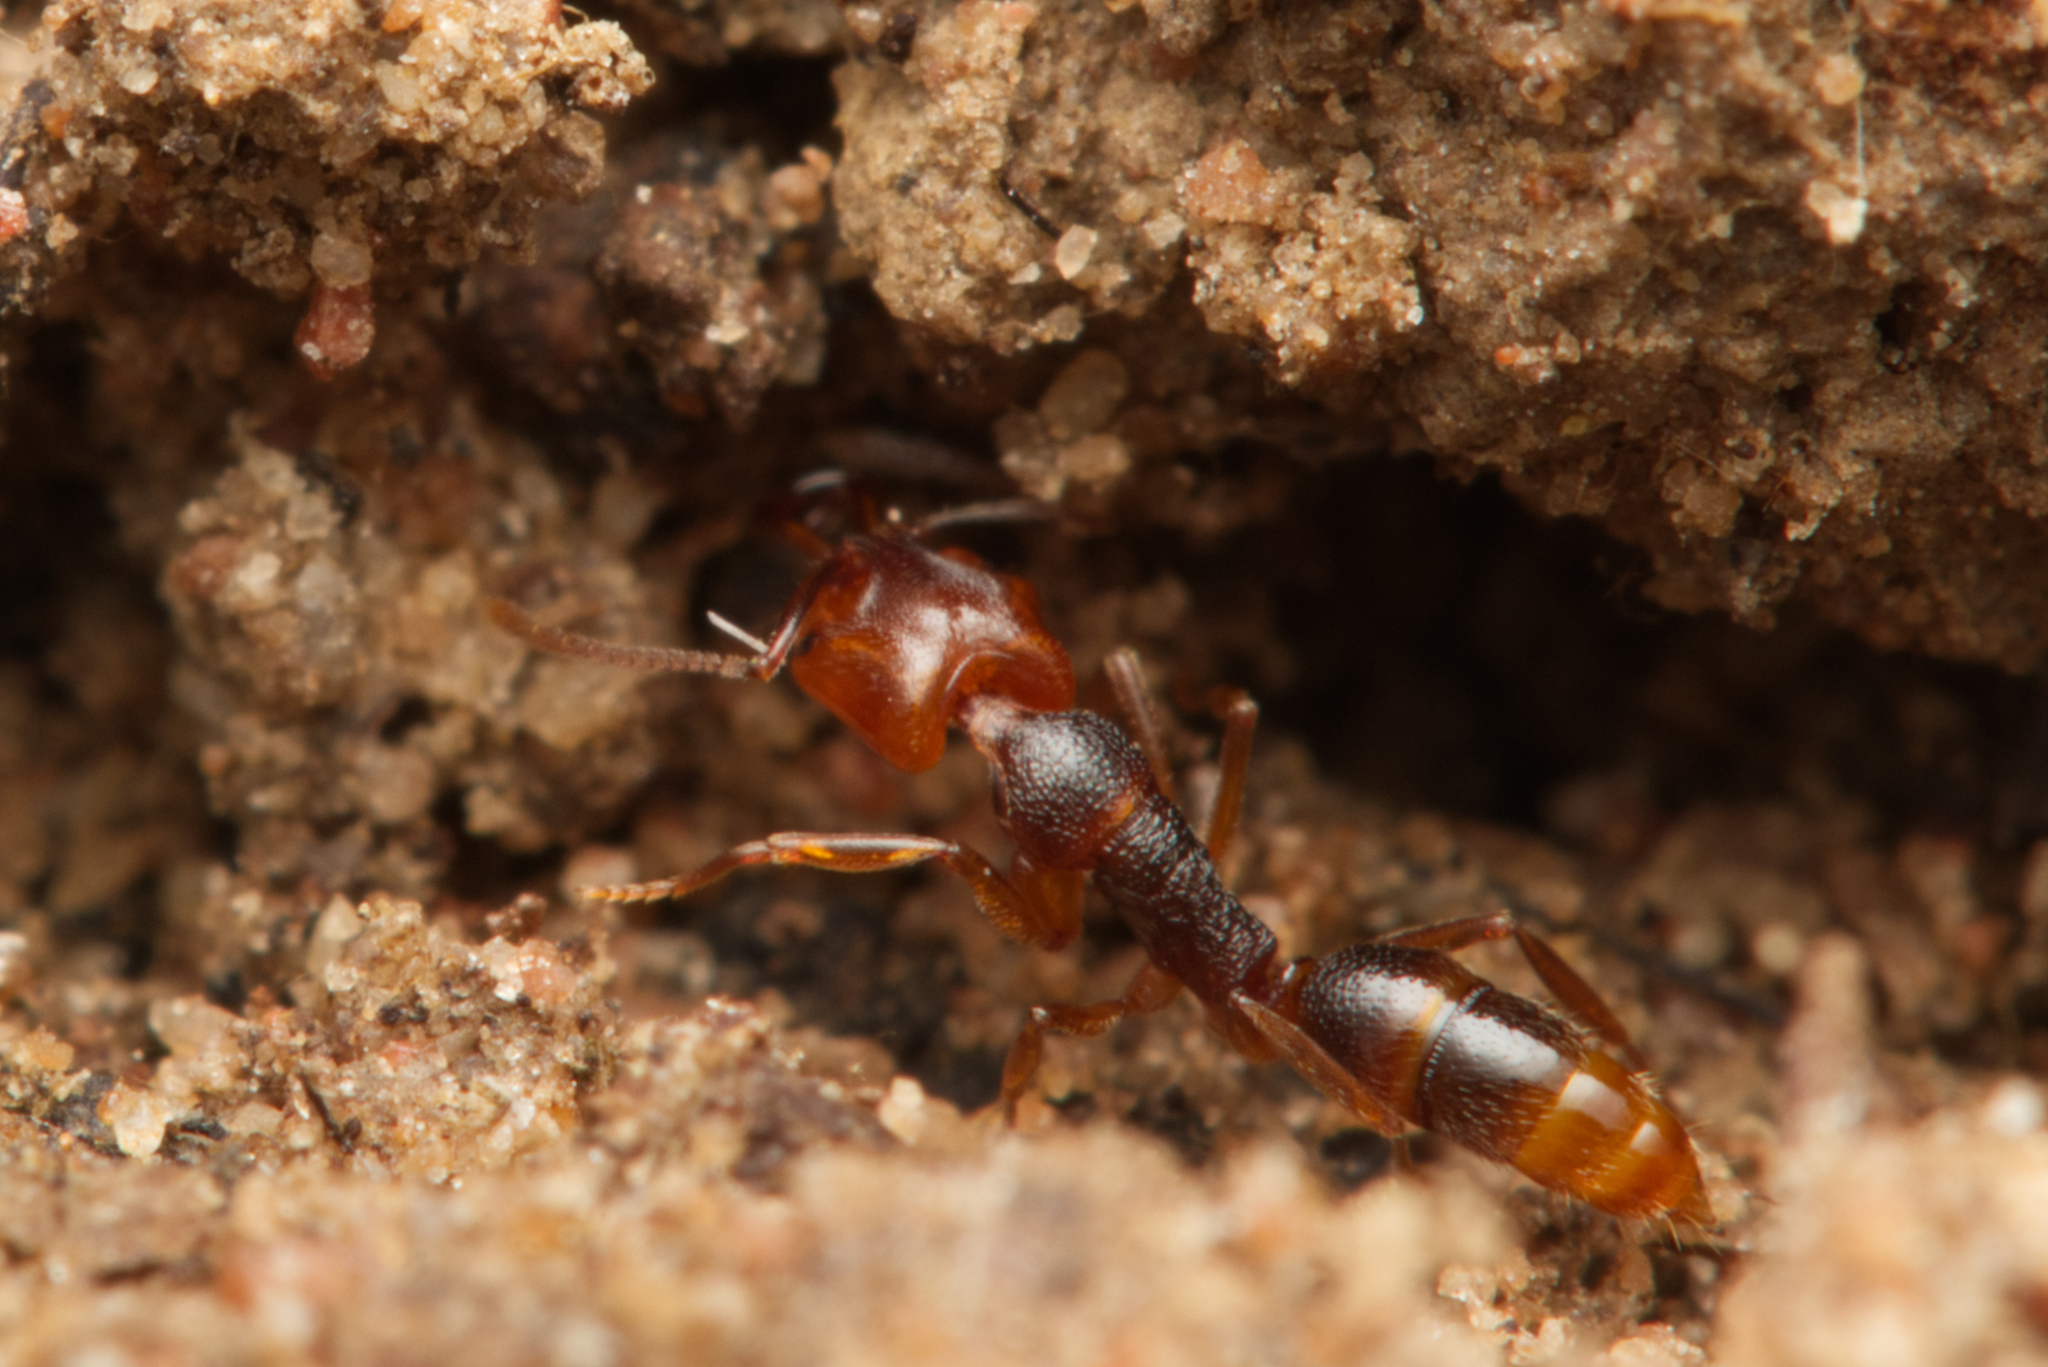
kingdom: Animalia
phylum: Arthropoda
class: Insecta
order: Hymenoptera
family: Formicidae
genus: Anochetus
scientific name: Anochetus graeffei
